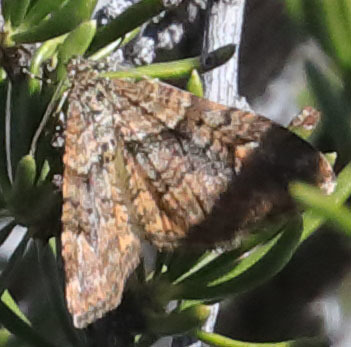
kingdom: Animalia
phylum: Arthropoda
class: Insecta
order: Lepidoptera
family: Geometridae
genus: Epirrhoe
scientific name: Epirrhoe plebeculata
